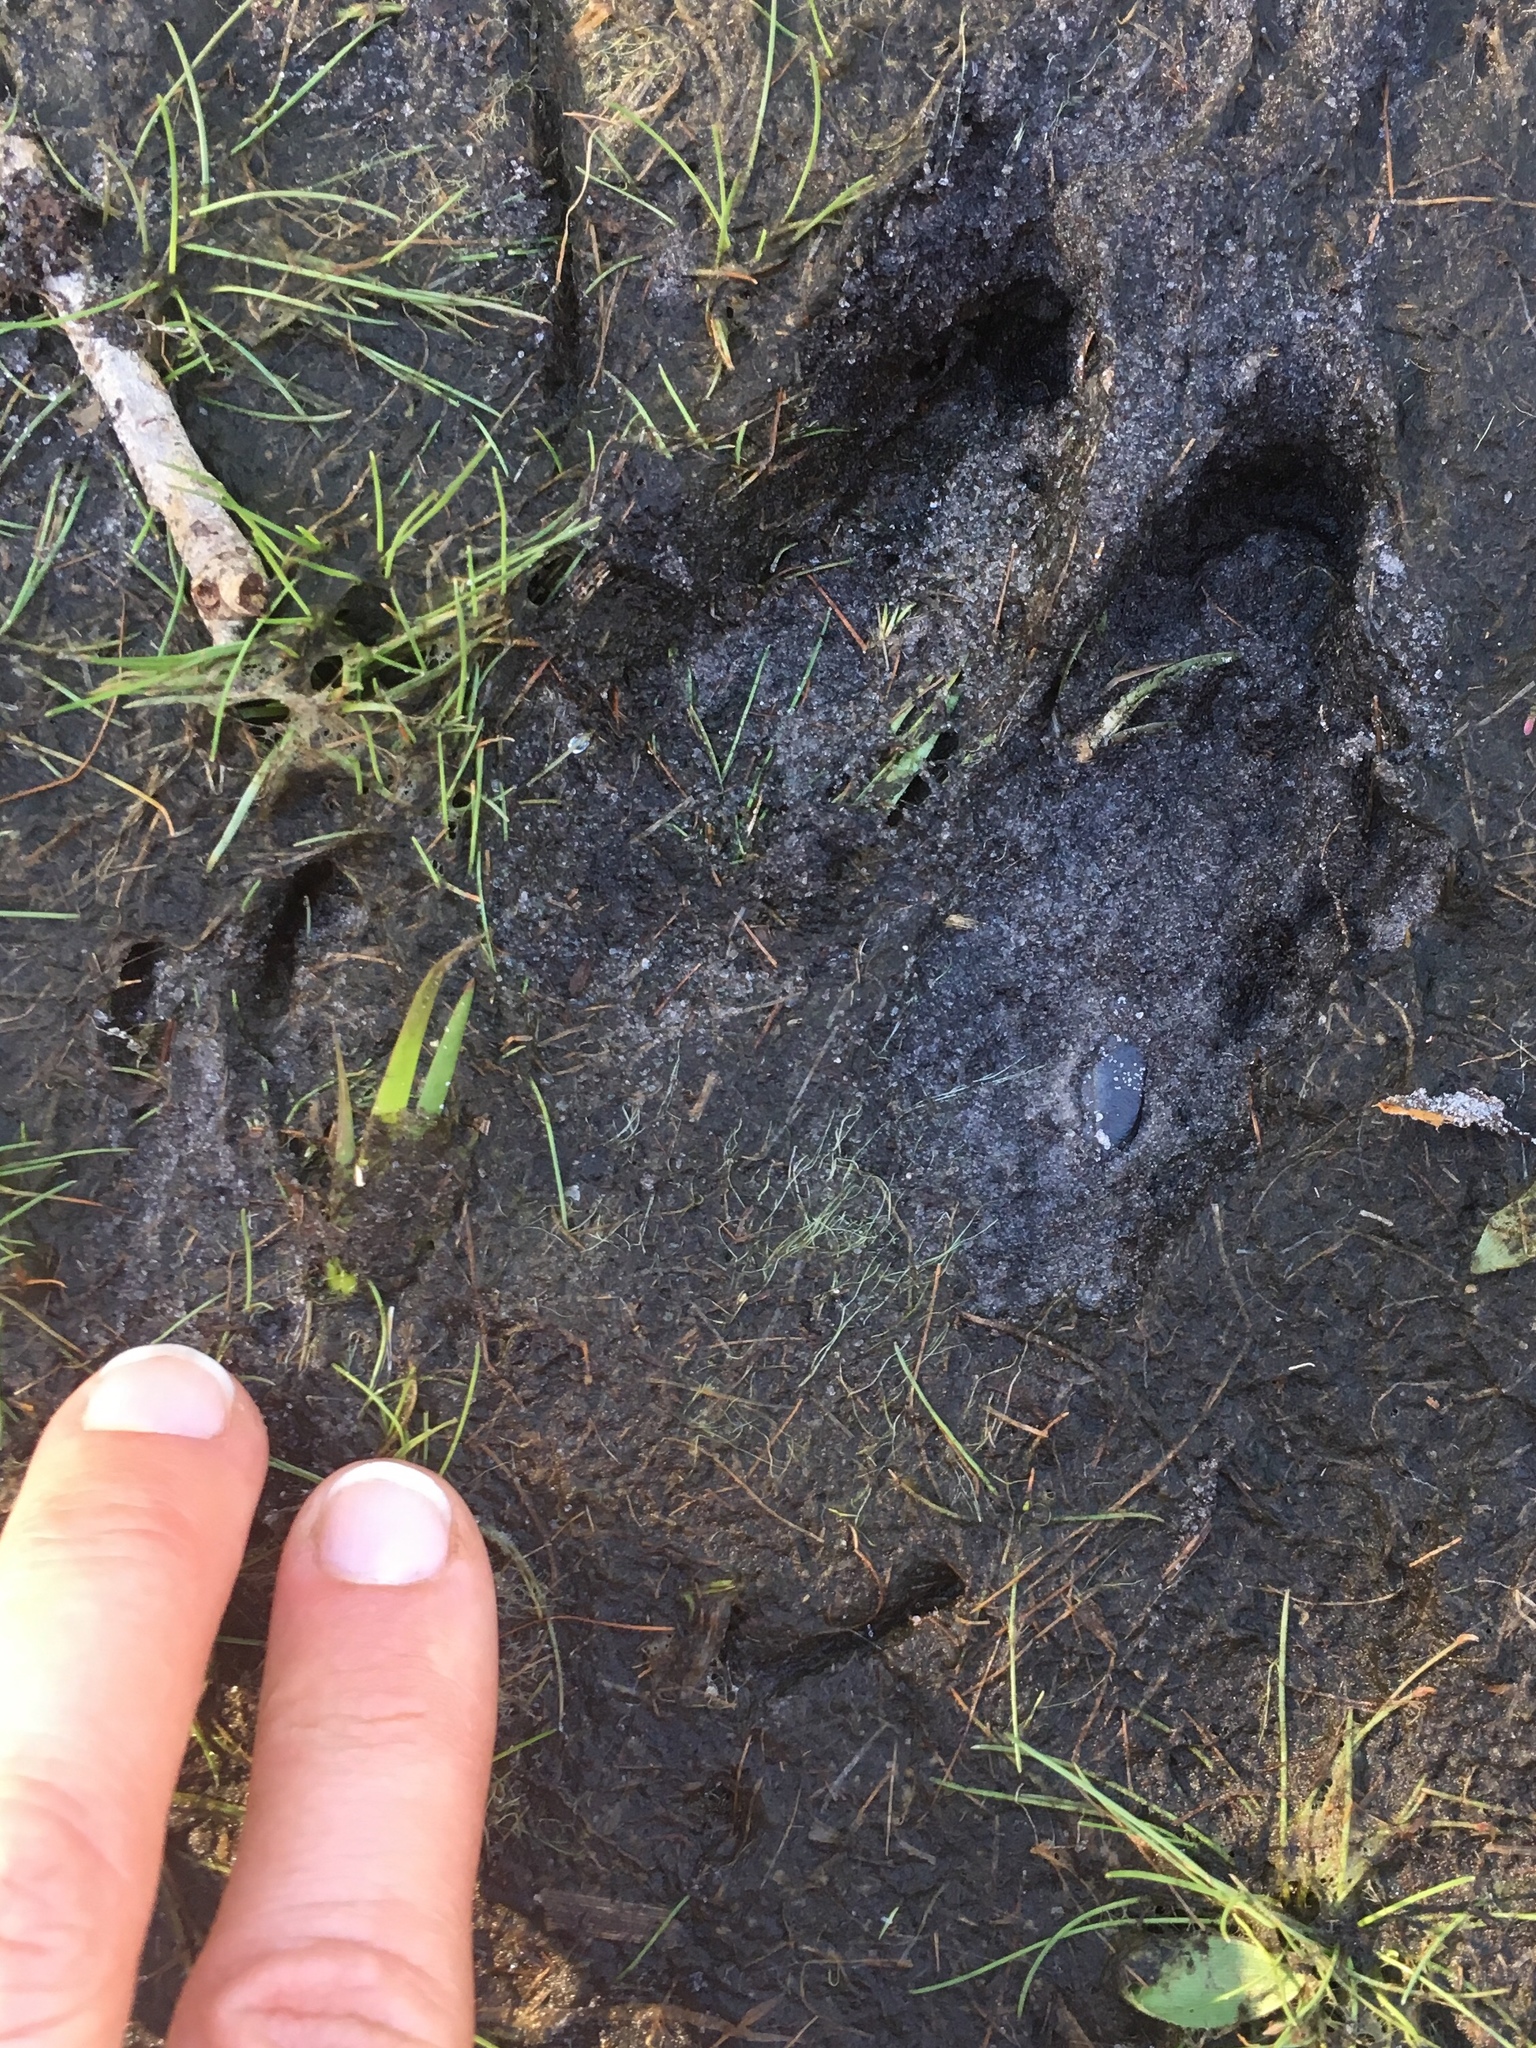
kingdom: Animalia
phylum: Chordata
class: Mammalia
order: Artiodactyla
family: Suidae
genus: Sus
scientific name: Sus scrofa
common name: Wild boar
